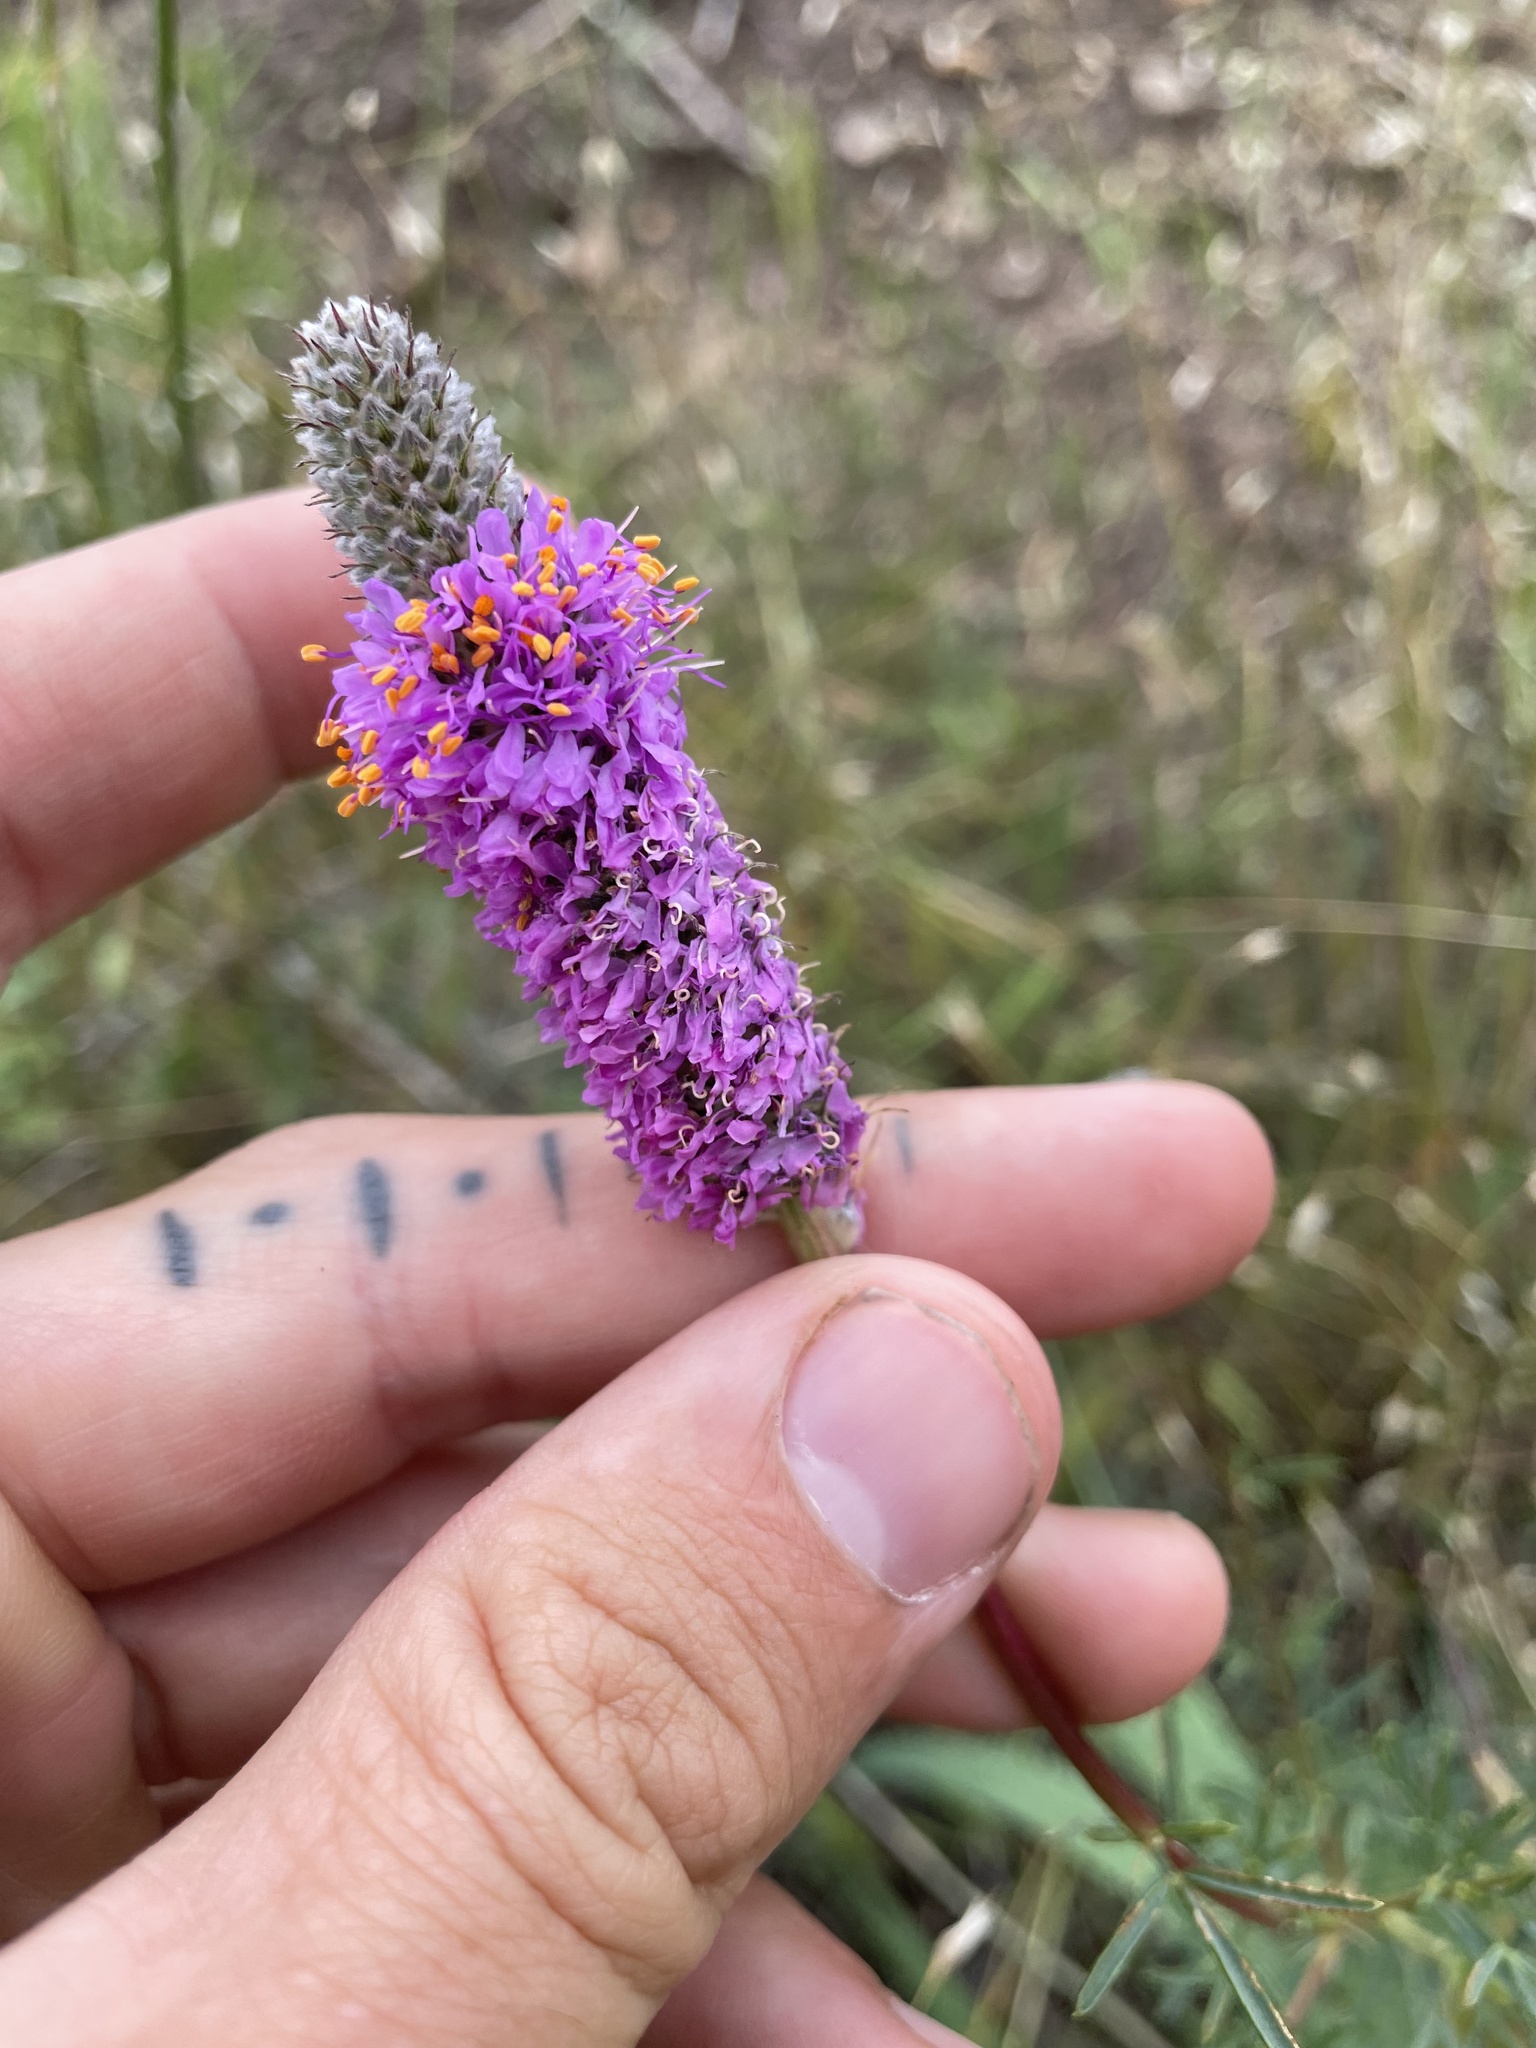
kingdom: Plantae
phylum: Tracheophyta
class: Magnoliopsida
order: Fabales
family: Fabaceae
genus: Dalea
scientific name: Dalea purpurea
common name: Purple prairie-clover
